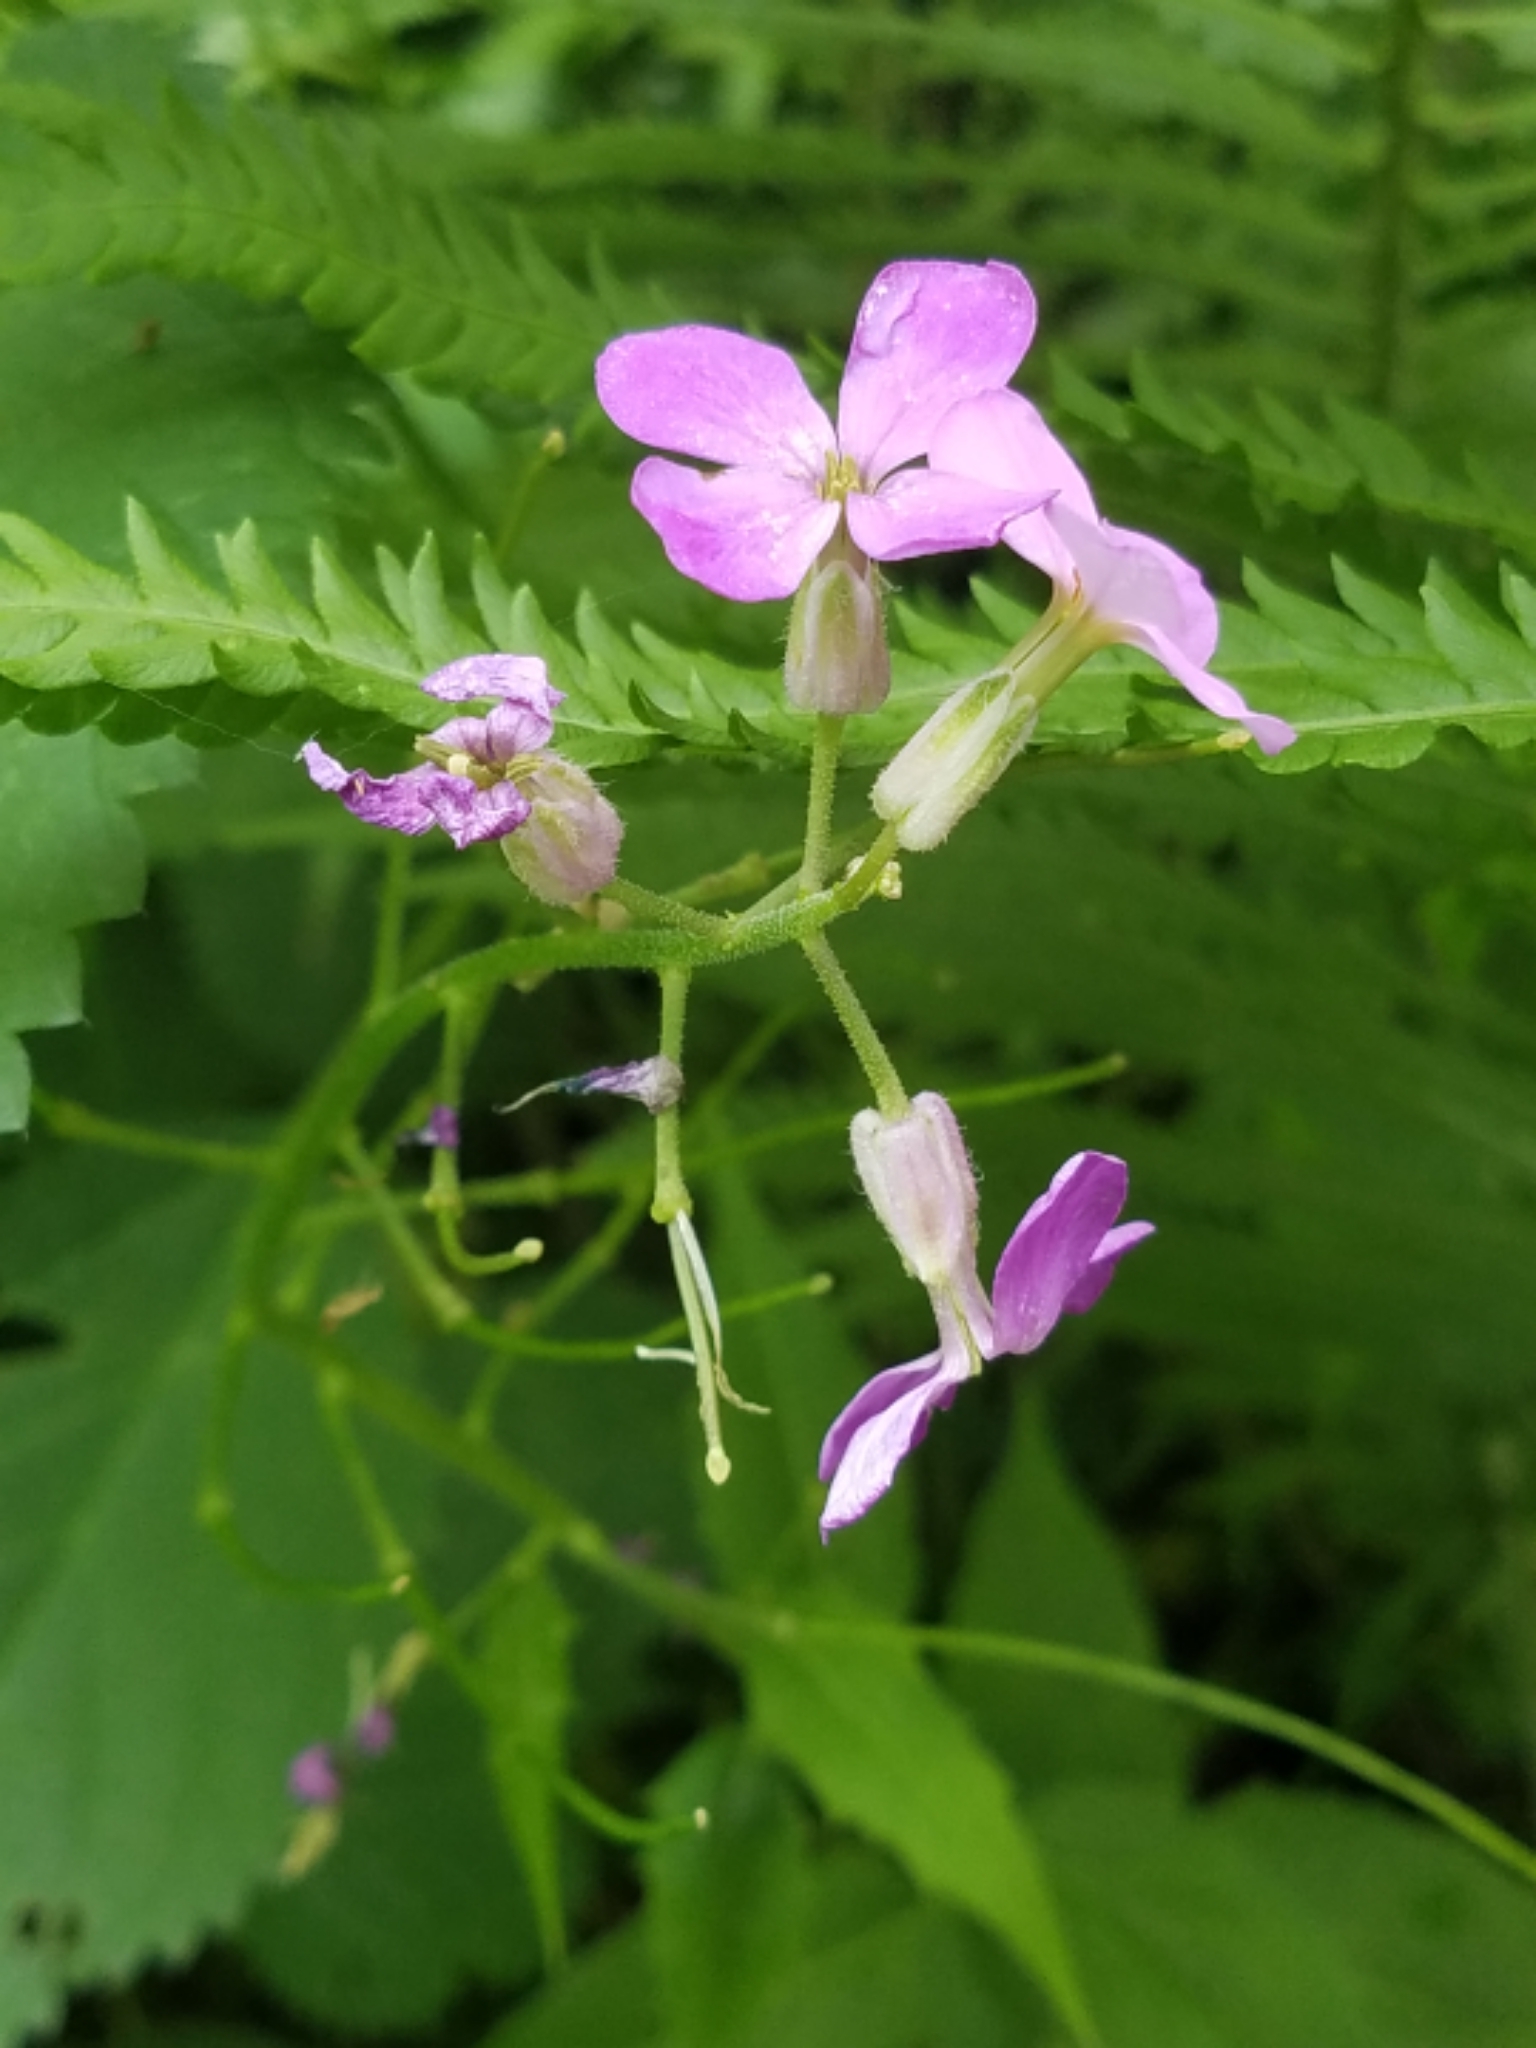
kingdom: Plantae
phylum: Tracheophyta
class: Magnoliopsida
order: Brassicales
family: Brassicaceae
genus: Hesperis
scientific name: Hesperis matronalis
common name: Dame's-violet
